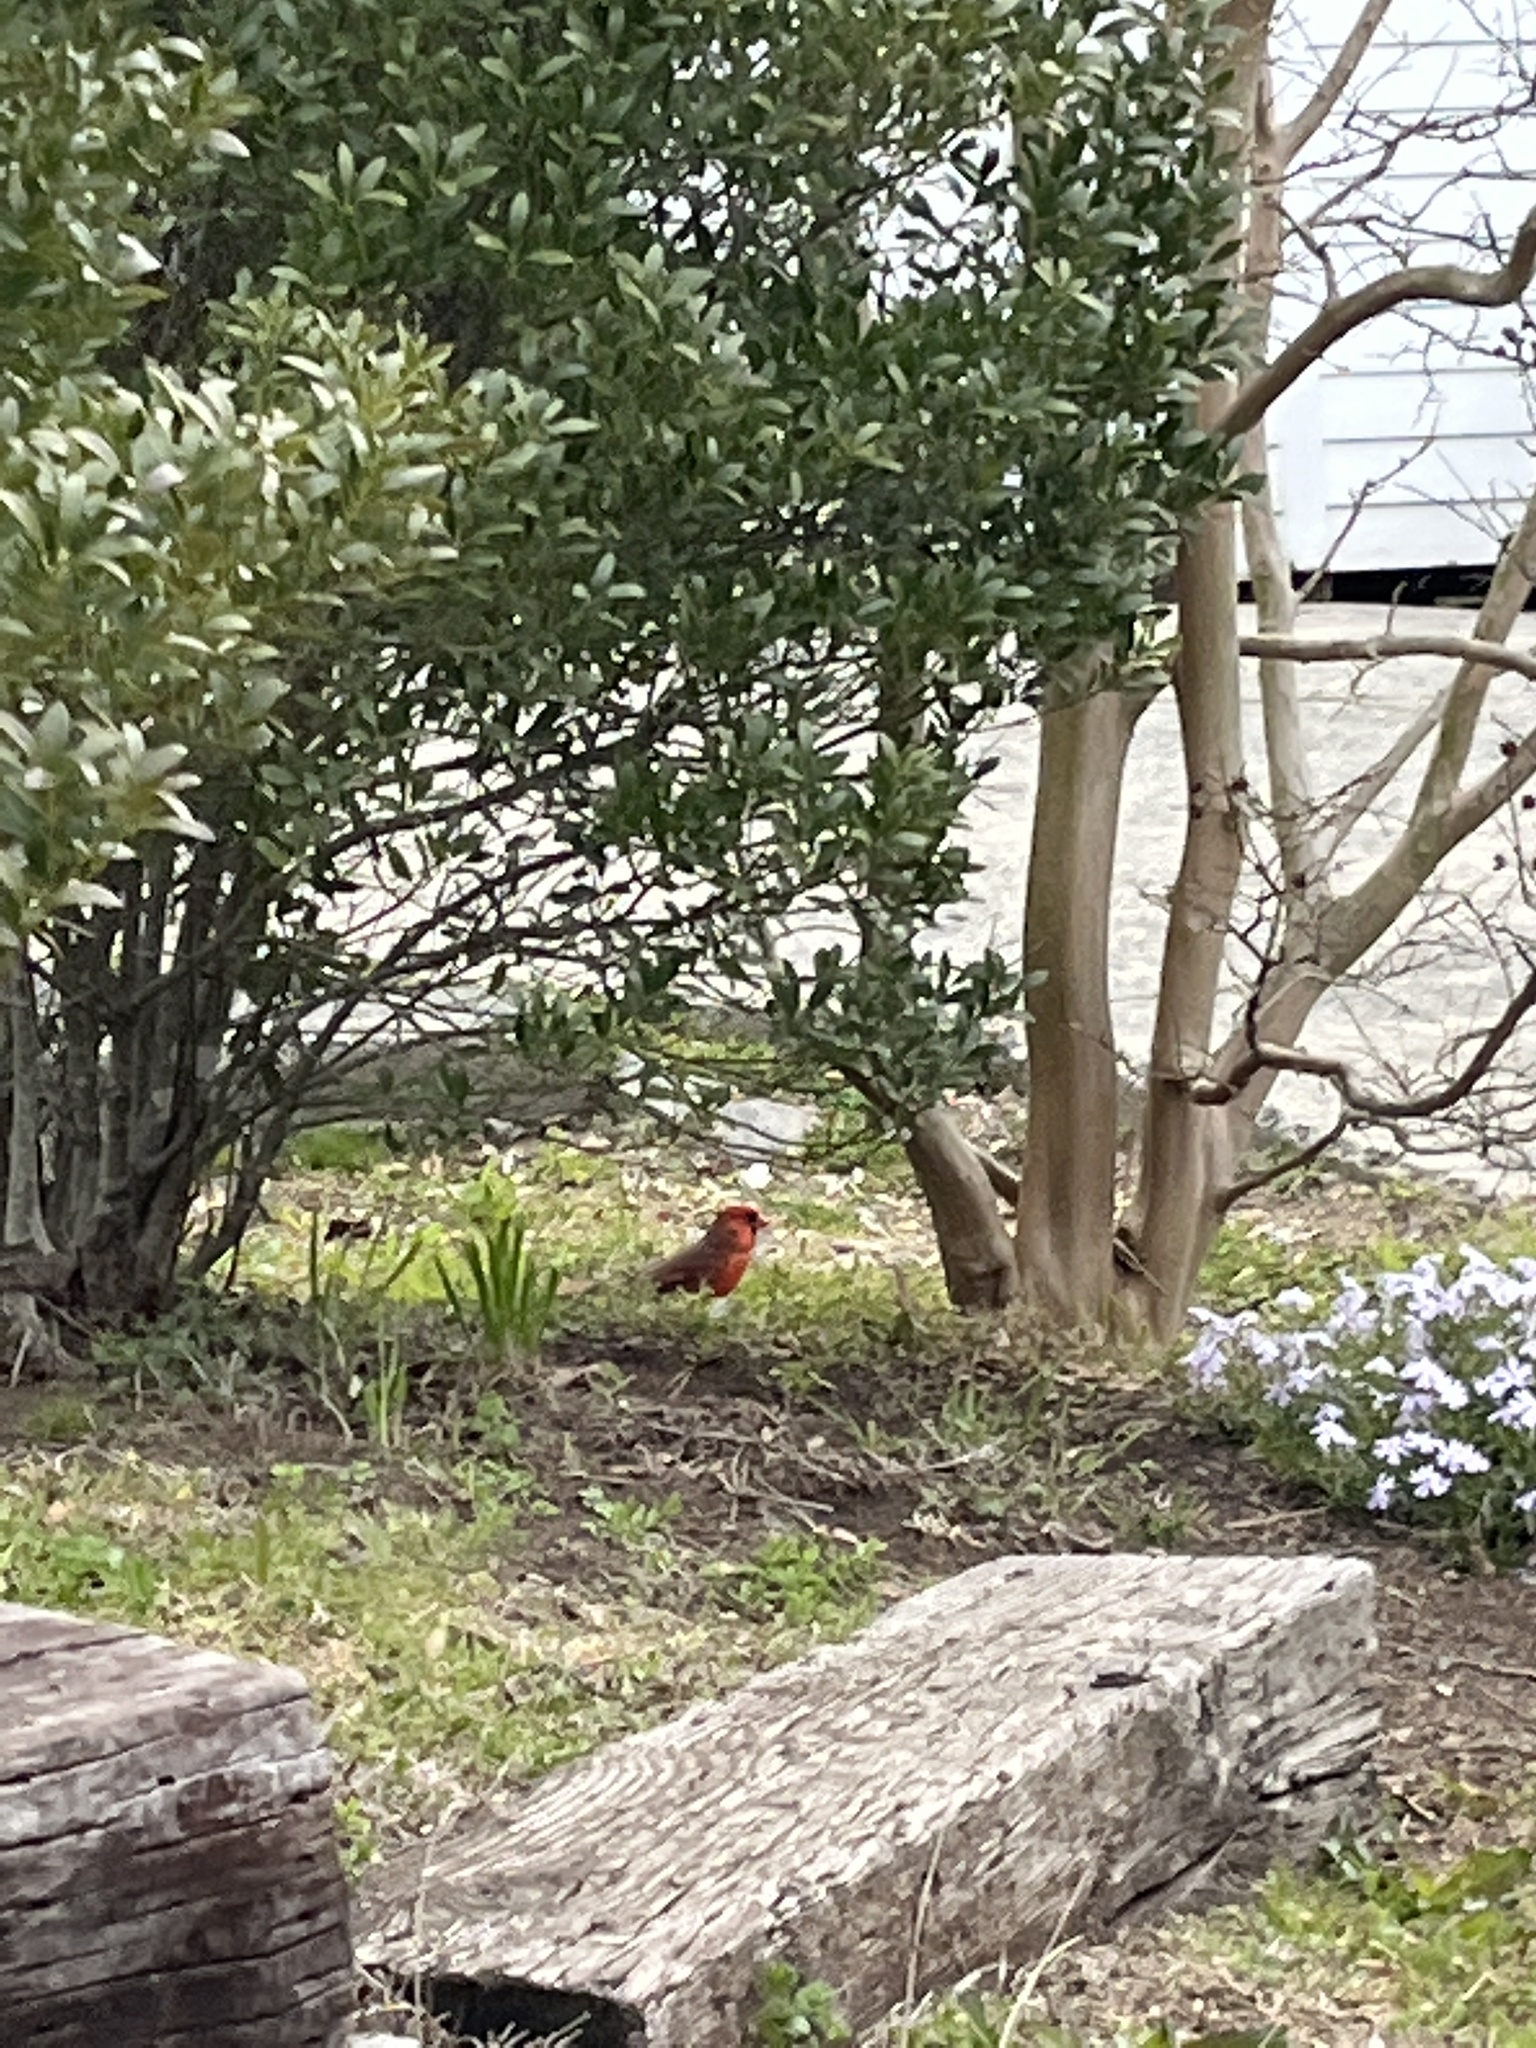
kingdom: Animalia
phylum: Chordata
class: Aves
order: Passeriformes
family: Cardinalidae
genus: Cardinalis
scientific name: Cardinalis cardinalis
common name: Northern cardinal
